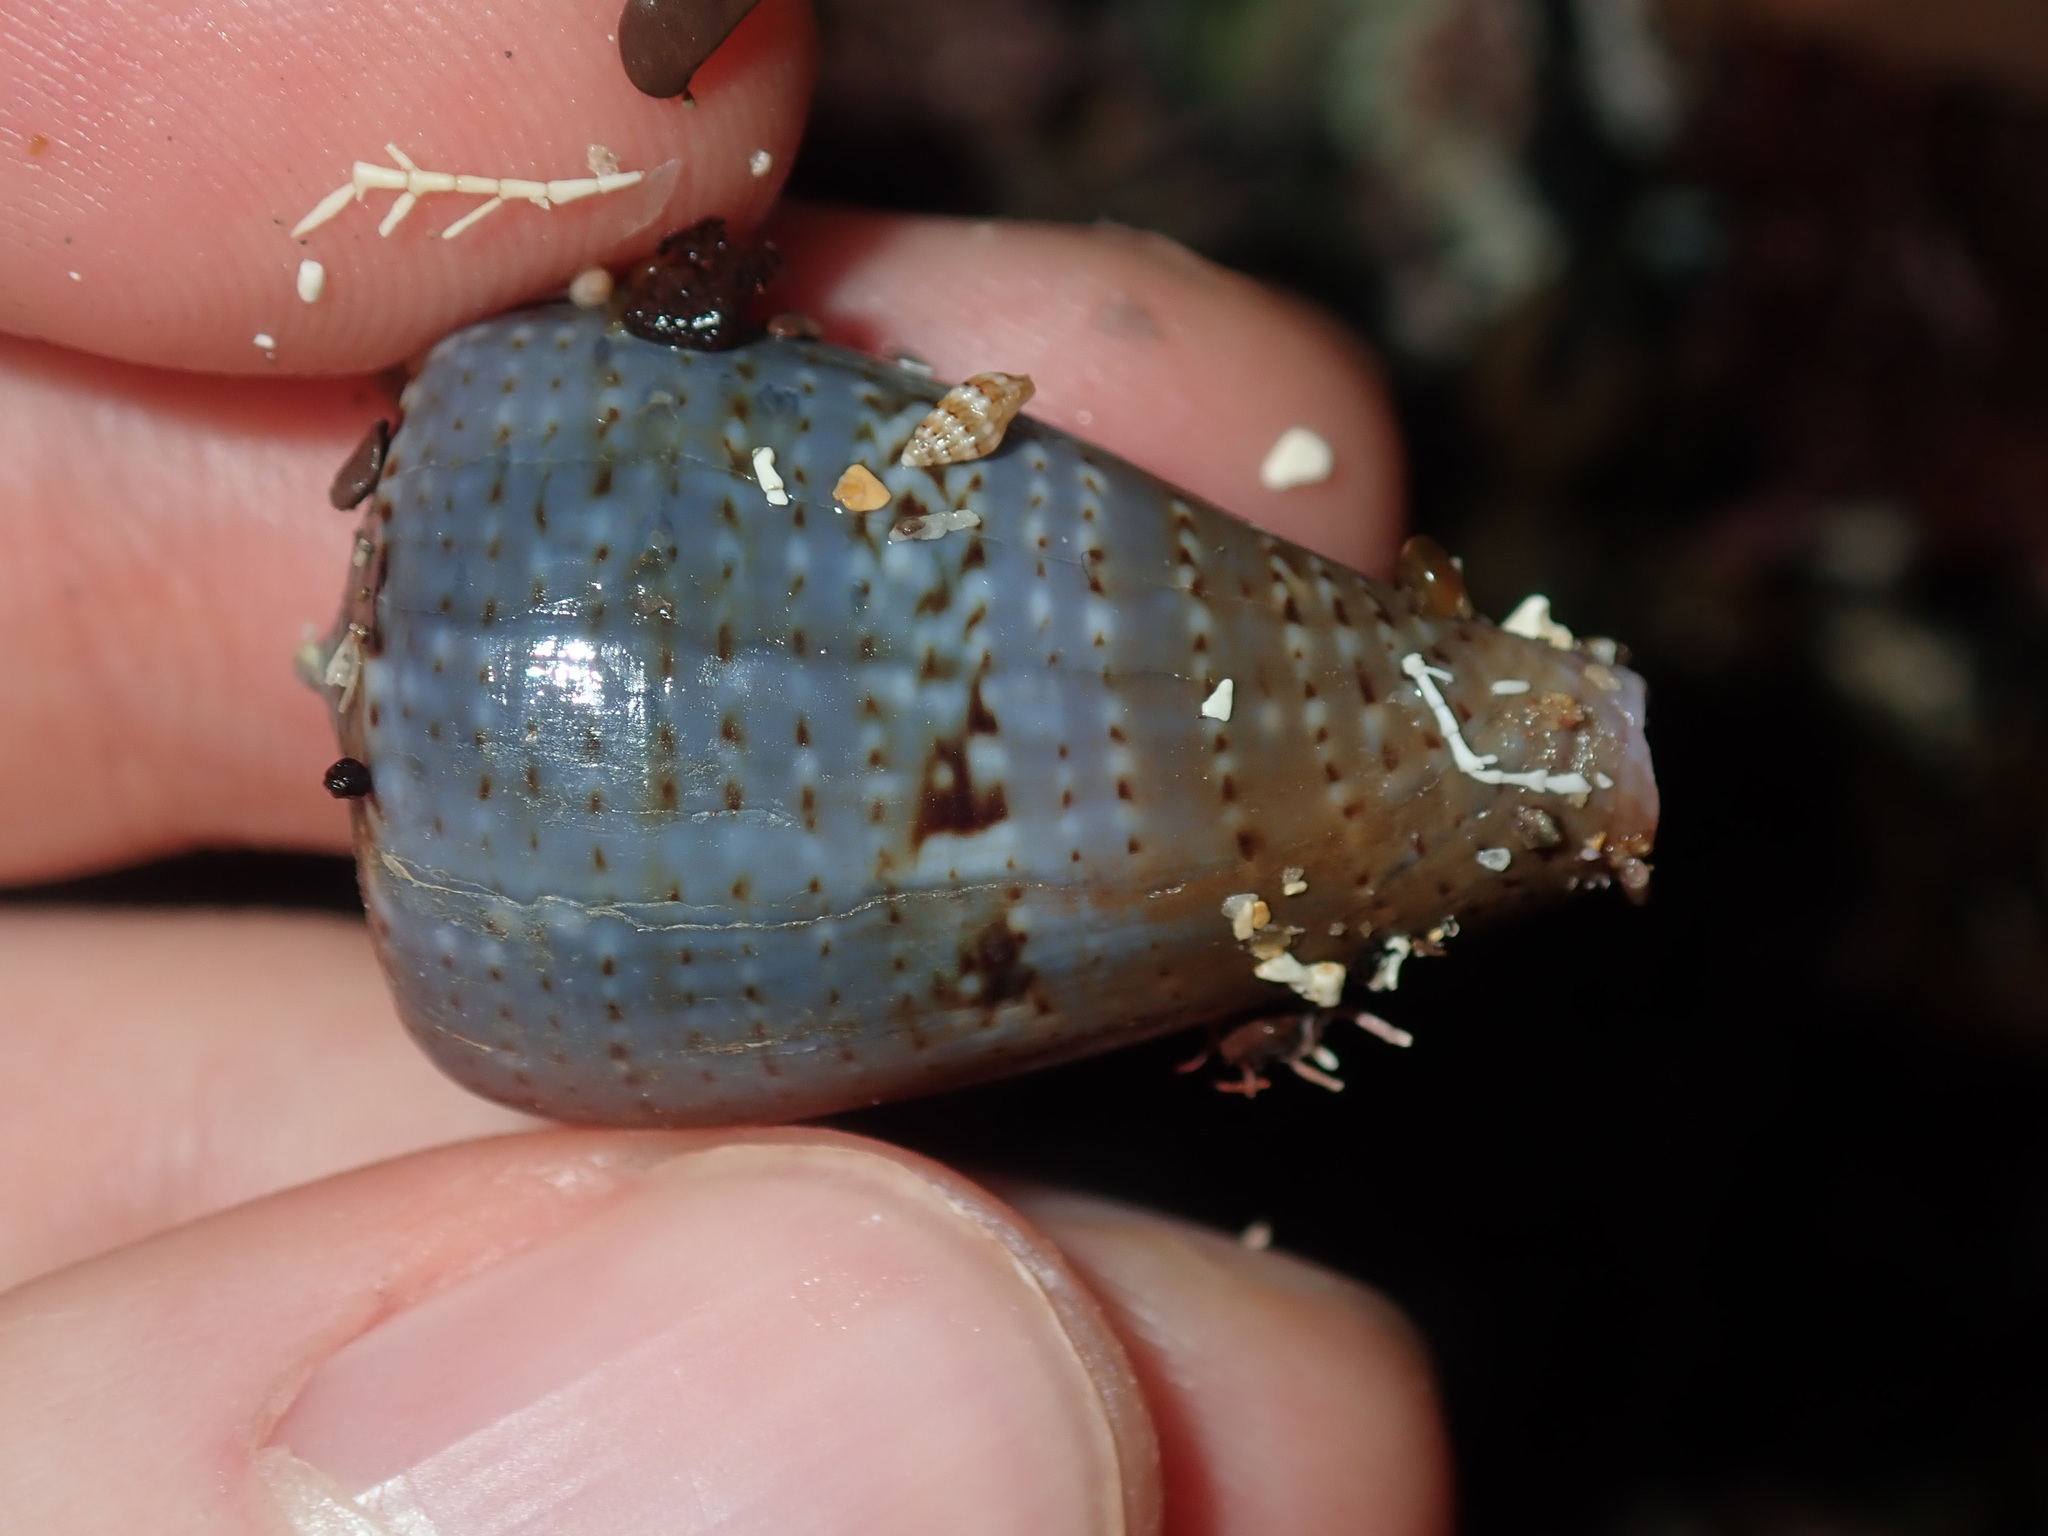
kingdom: Animalia
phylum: Mollusca
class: Gastropoda
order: Neogastropoda
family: Columbellidae
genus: Zafra
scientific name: Zafra troglodytes
